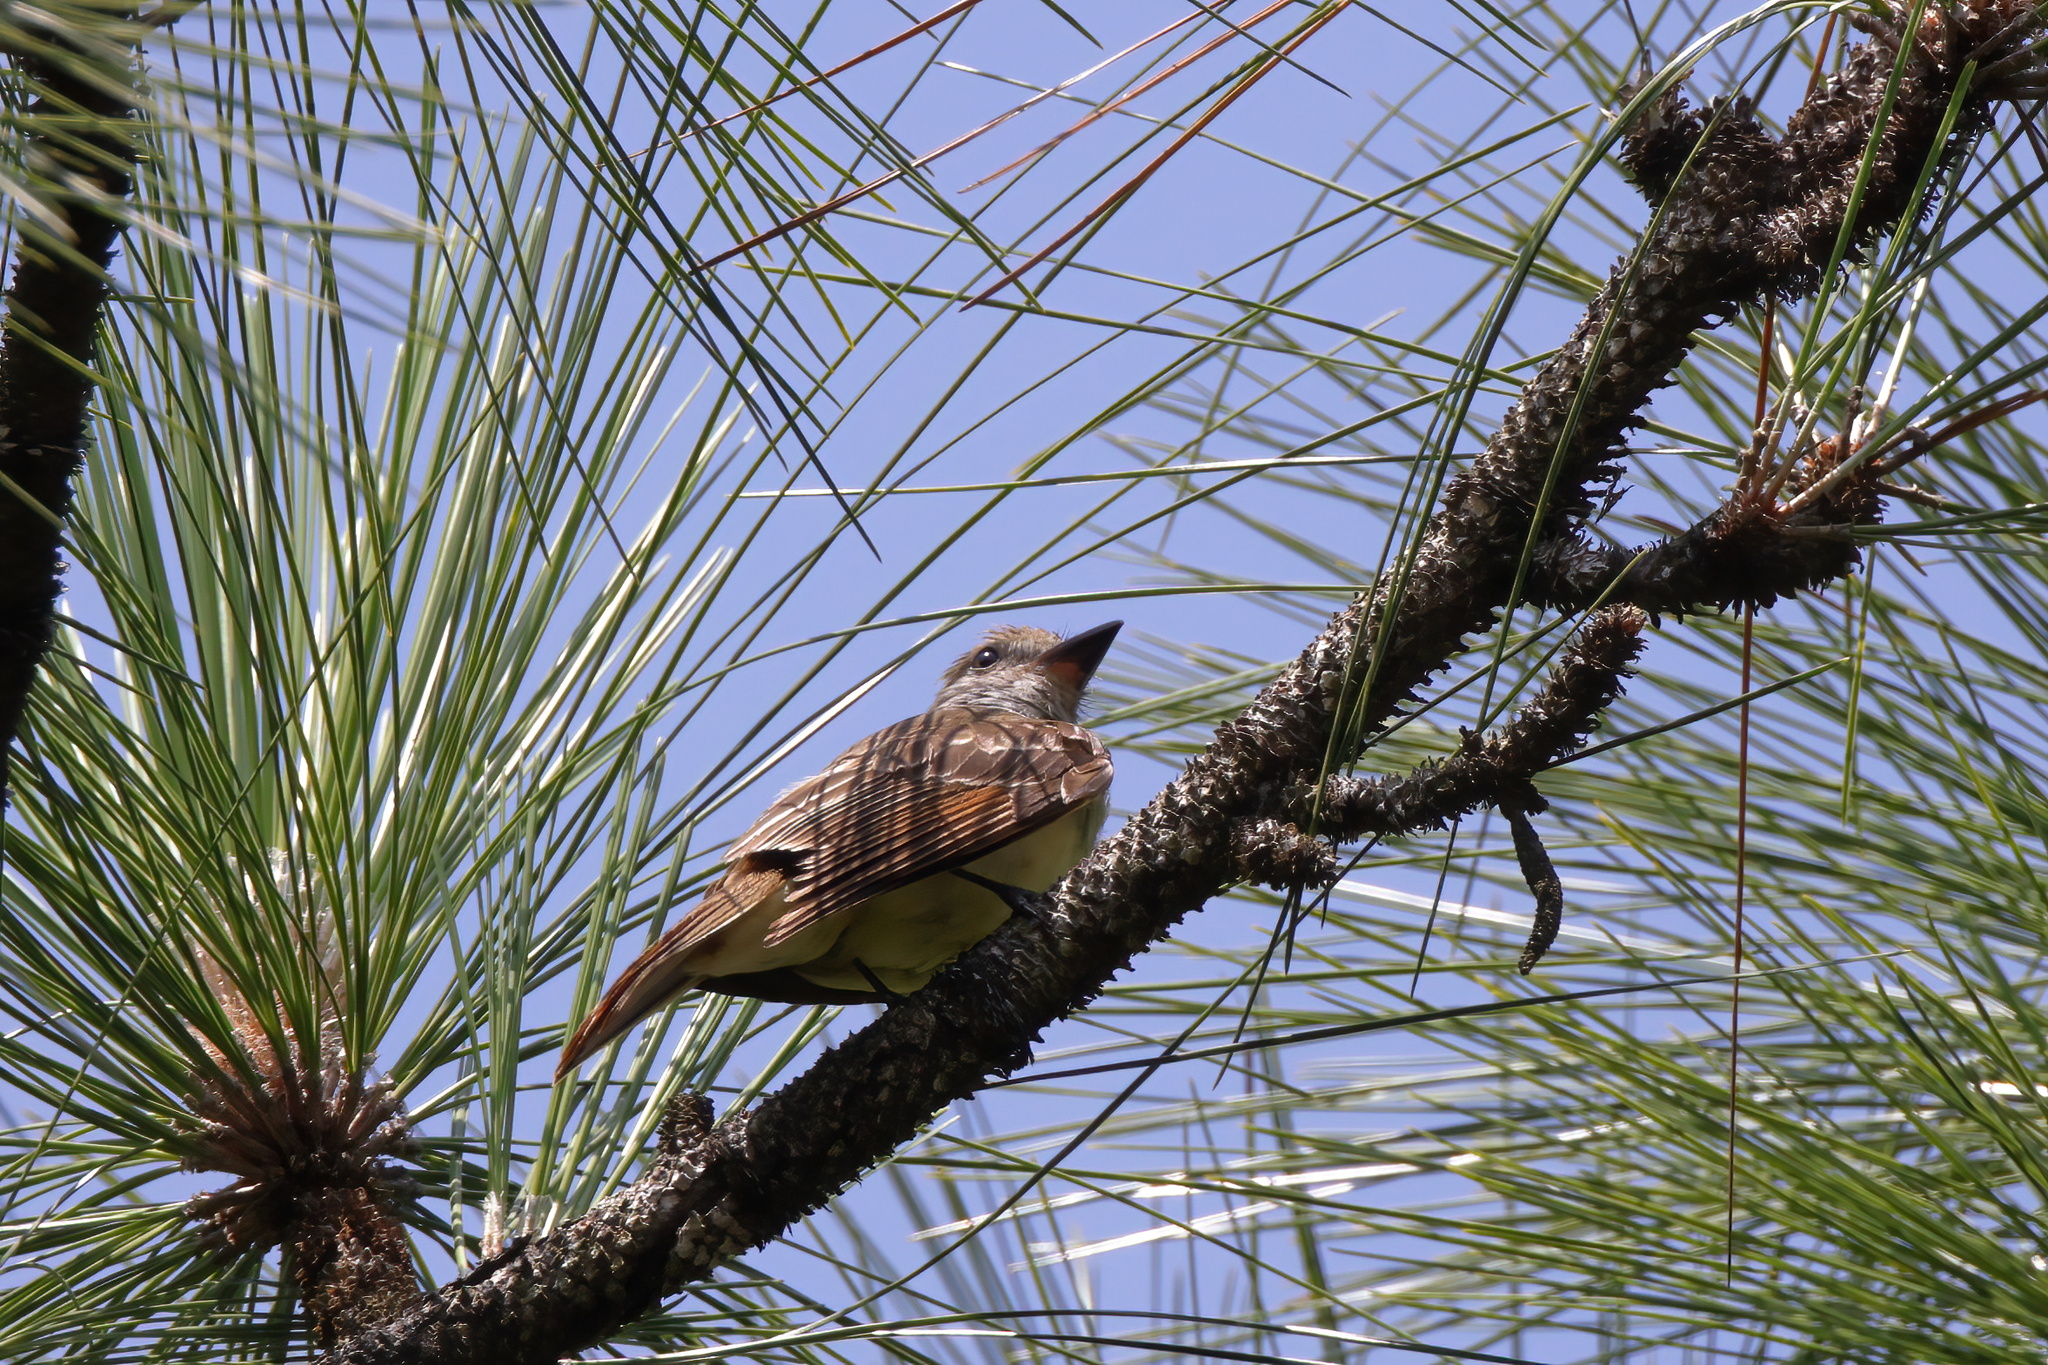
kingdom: Animalia
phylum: Chordata
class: Aves
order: Passeriformes
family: Tyrannidae
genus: Myiarchus
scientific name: Myiarchus crinitus
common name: Great crested flycatcher
